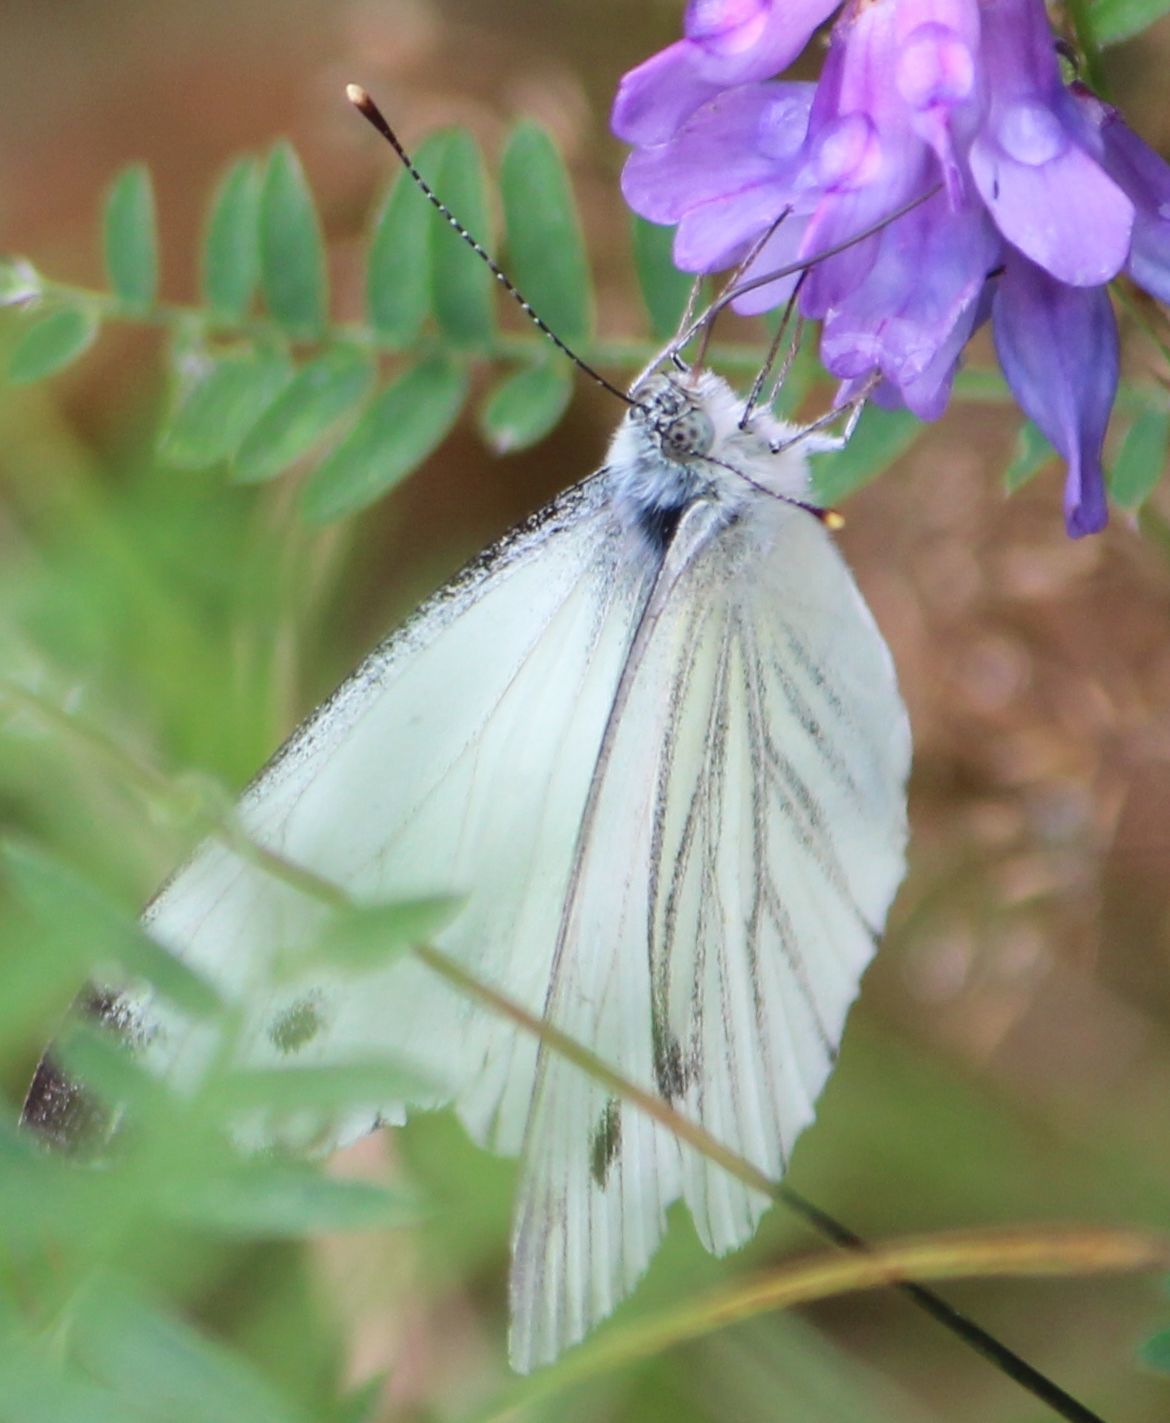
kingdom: Animalia
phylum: Arthropoda
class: Insecta
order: Lepidoptera
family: Pieridae
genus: Pieris
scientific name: Pieris napi
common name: Green-veined white
